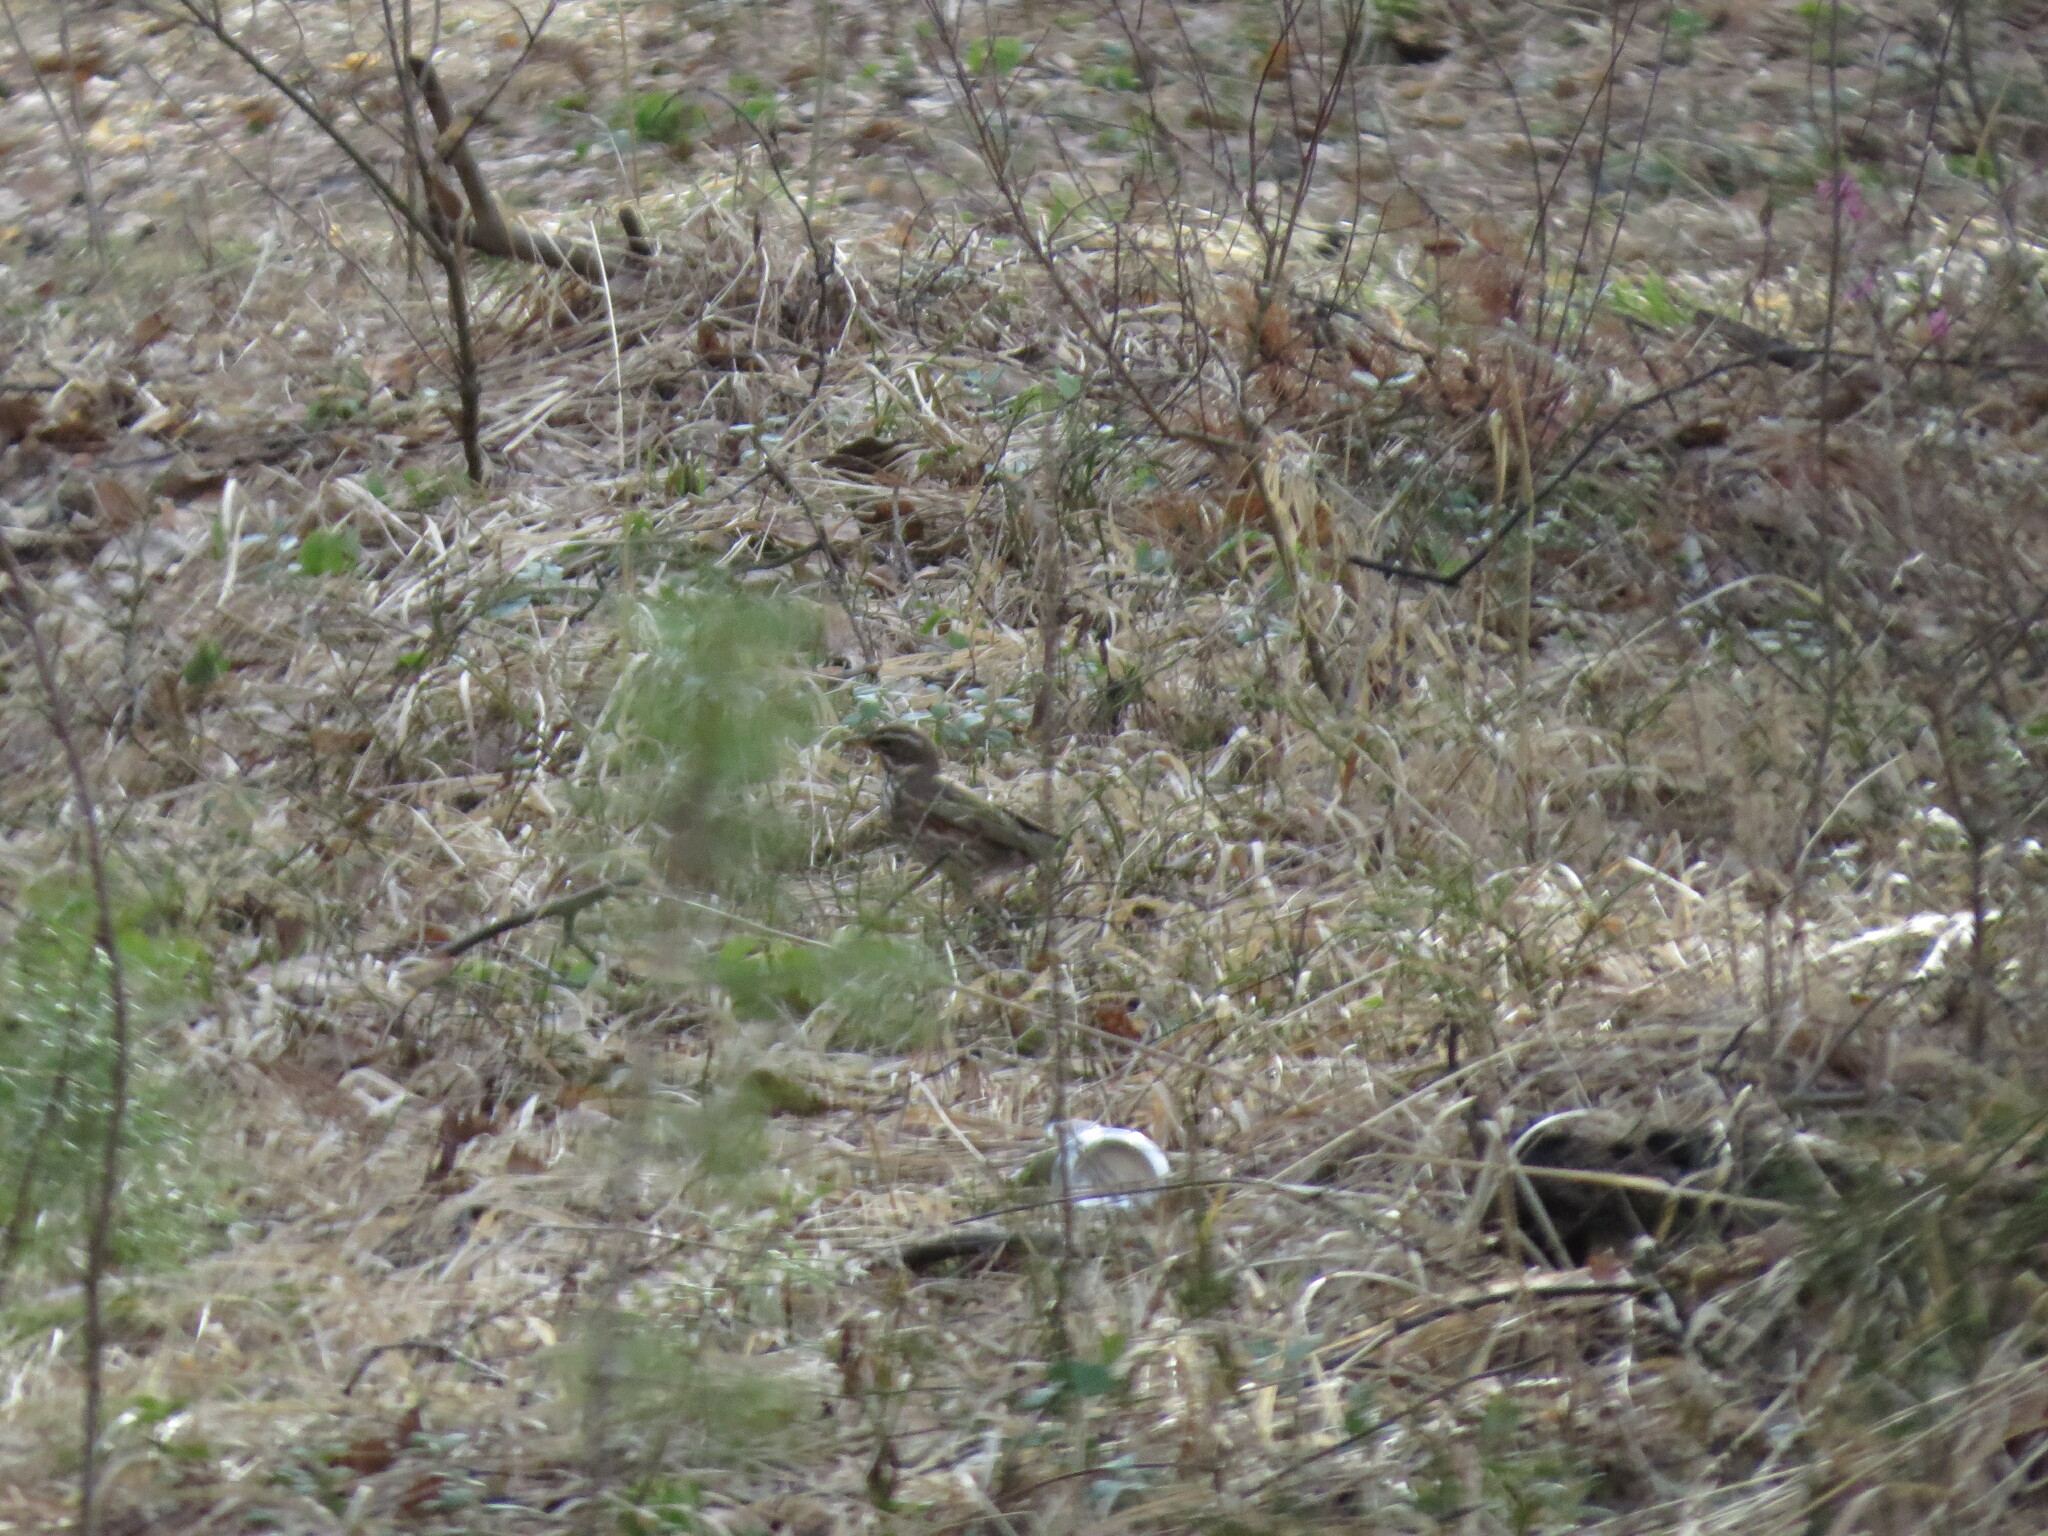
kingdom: Animalia
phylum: Chordata
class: Aves
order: Passeriformes
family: Turdidae
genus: Turdus
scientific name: Turdus iliacus
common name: Redwing
